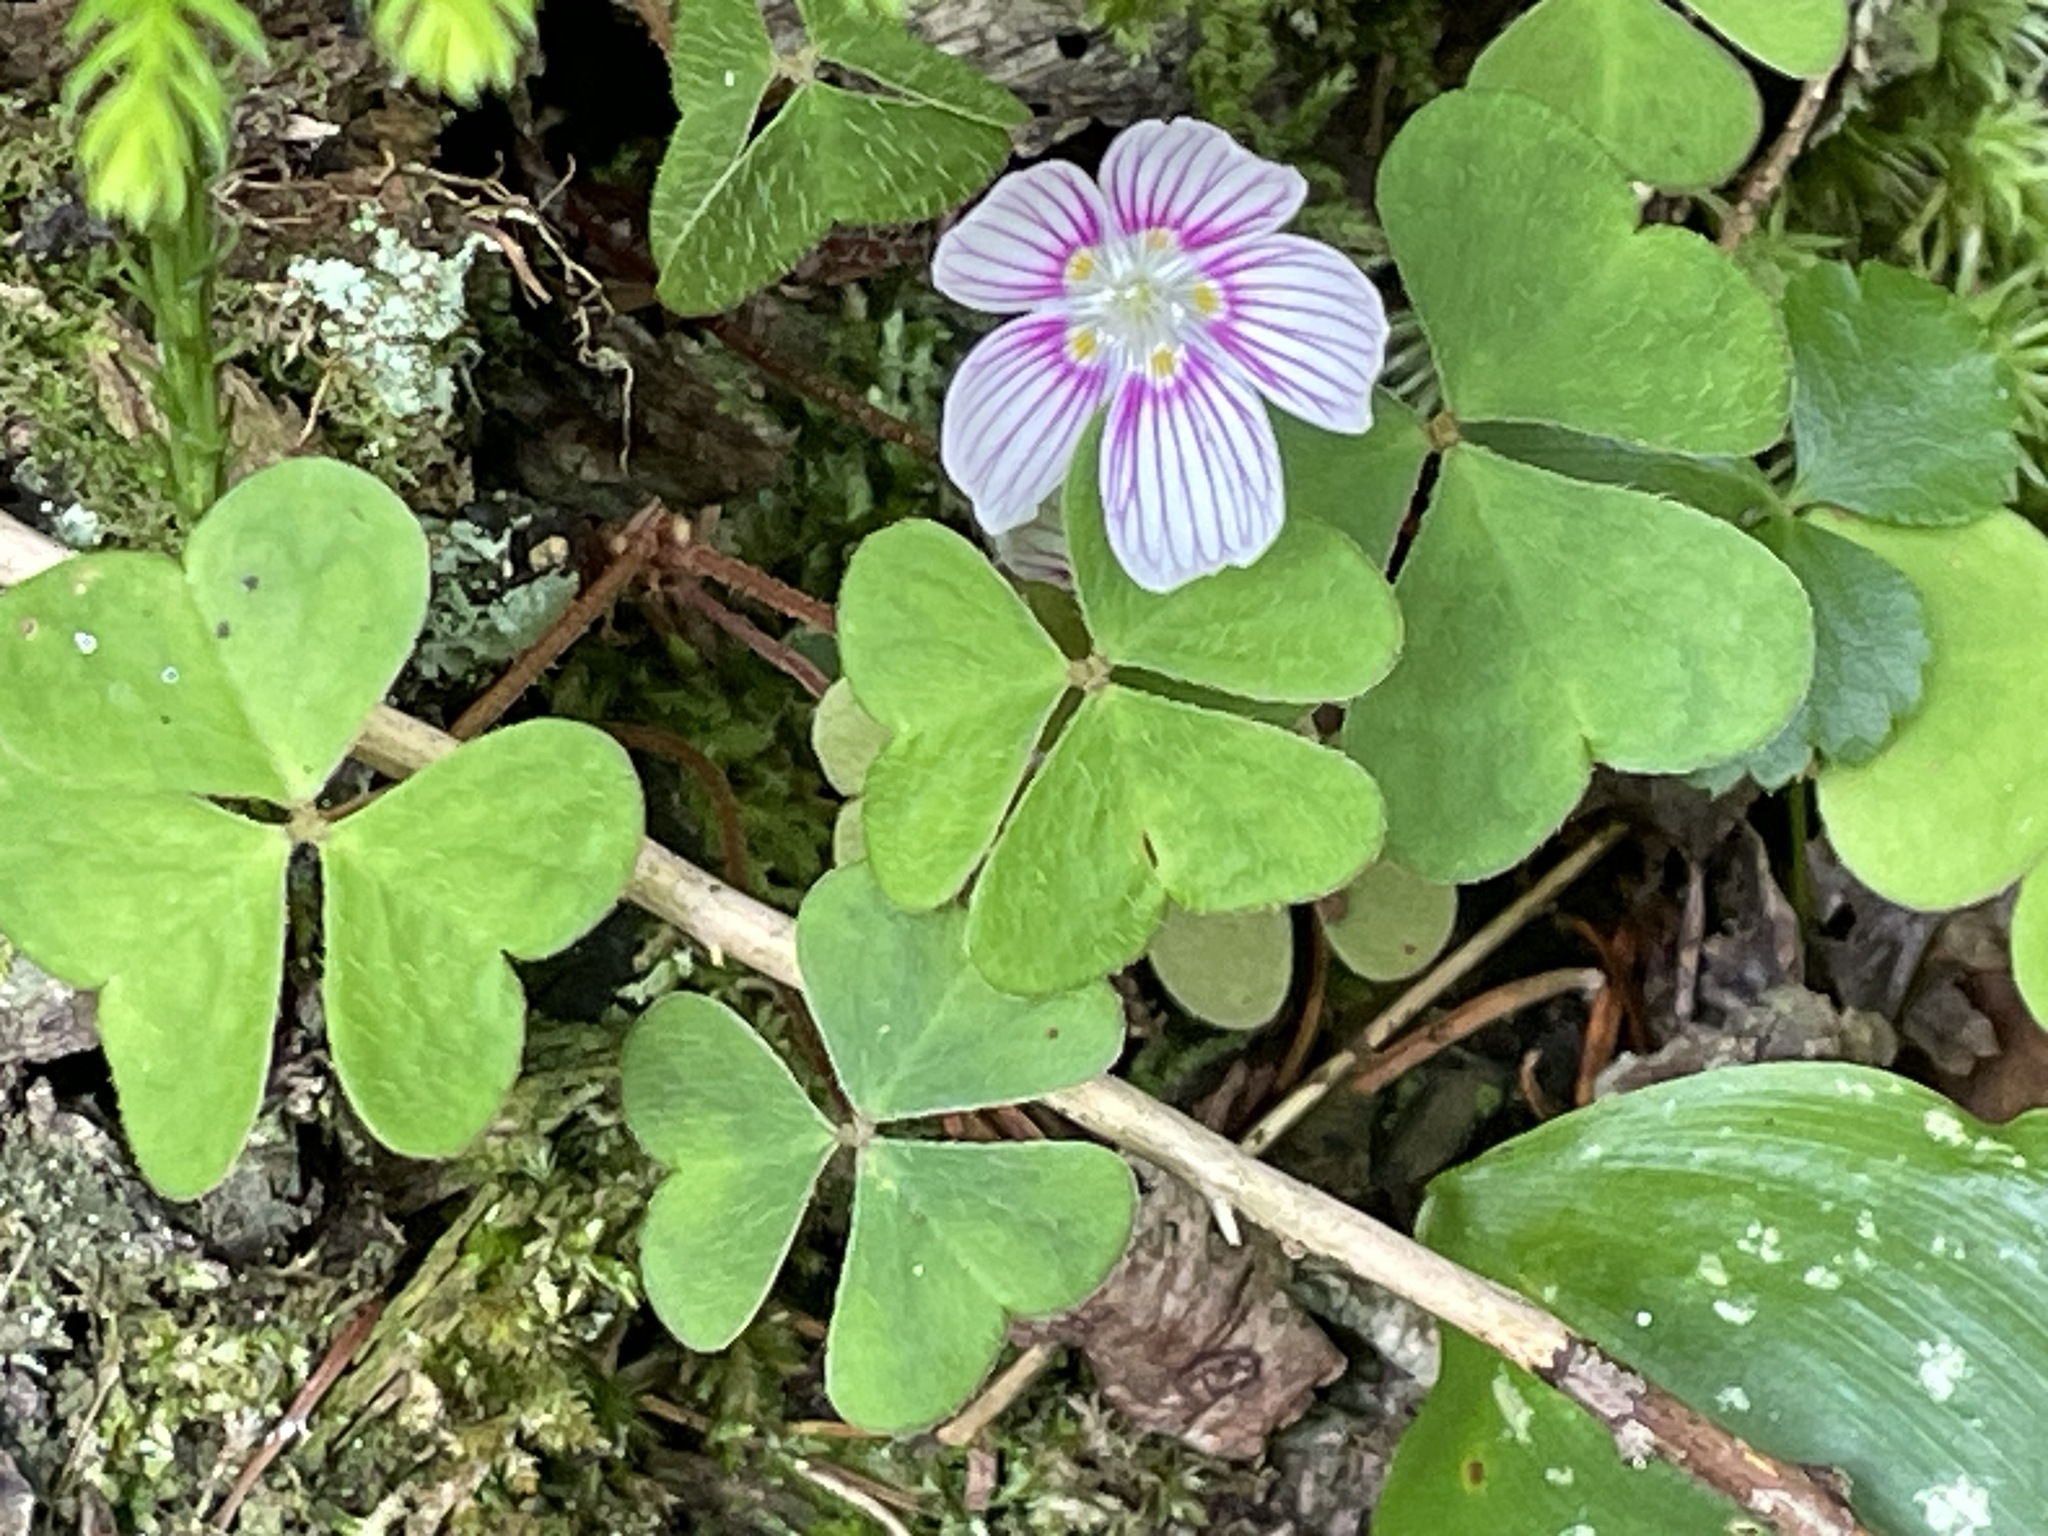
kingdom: Plantae
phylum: Tracheophyta
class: Magnoliopsida
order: Oxalidales
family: Oxalidaceae
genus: Oxalis
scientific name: Oxalis montana
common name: American wood-sorrel
